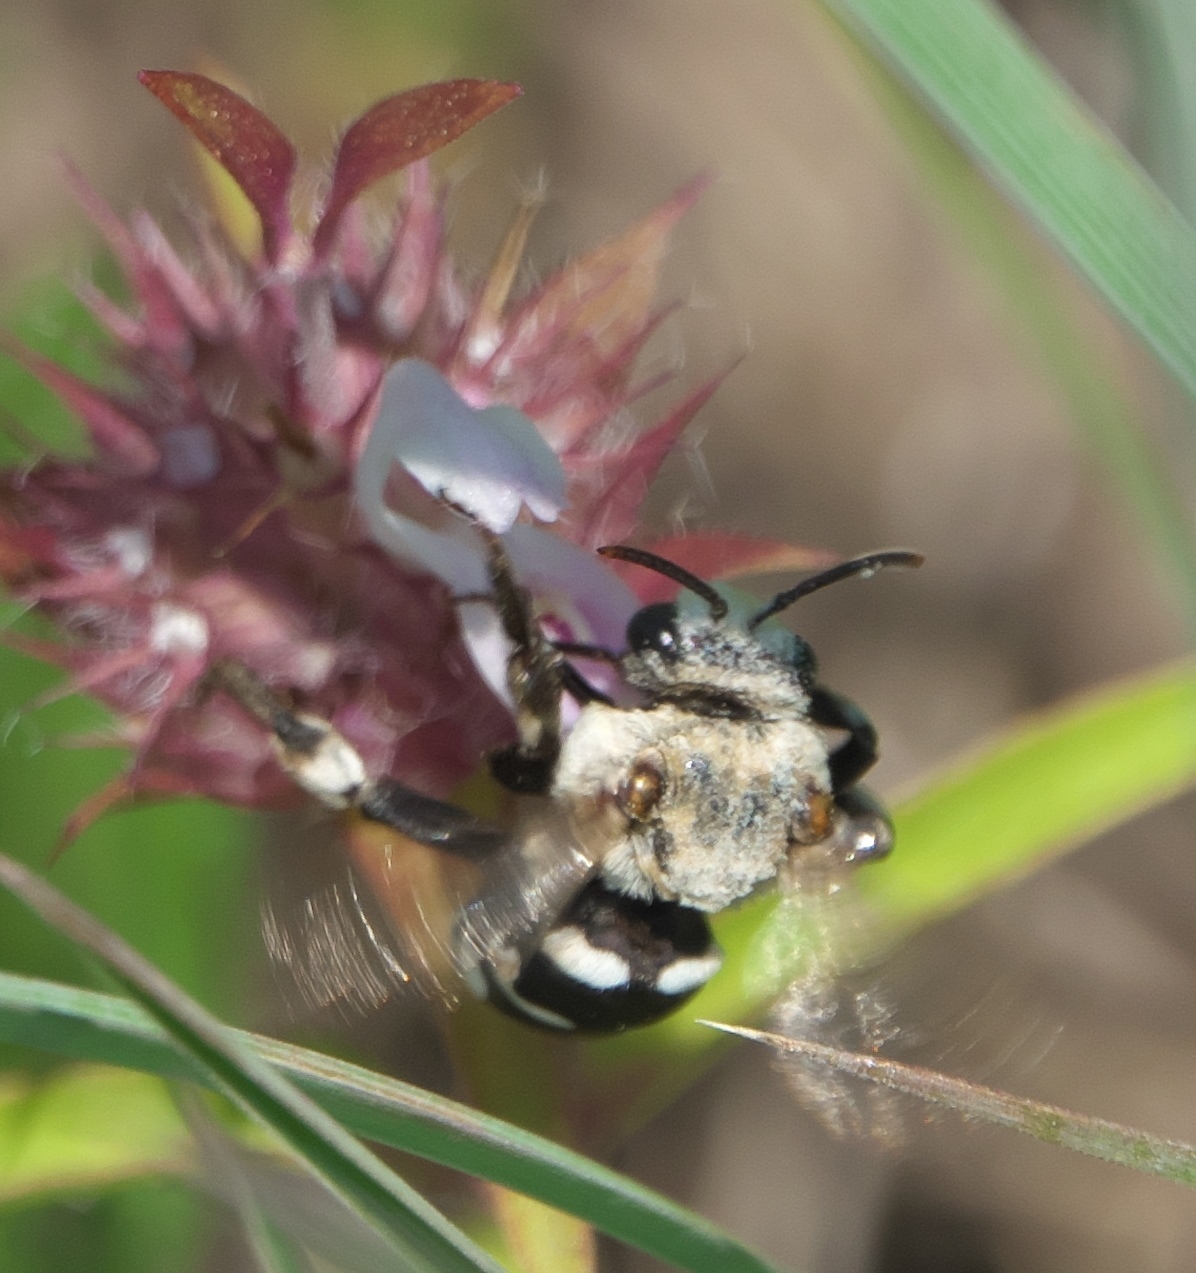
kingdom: Animalia
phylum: Arthropoda
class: Insecta
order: Hymenoptera
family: Apidae
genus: Ericrocis
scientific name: Ericrocis lata
